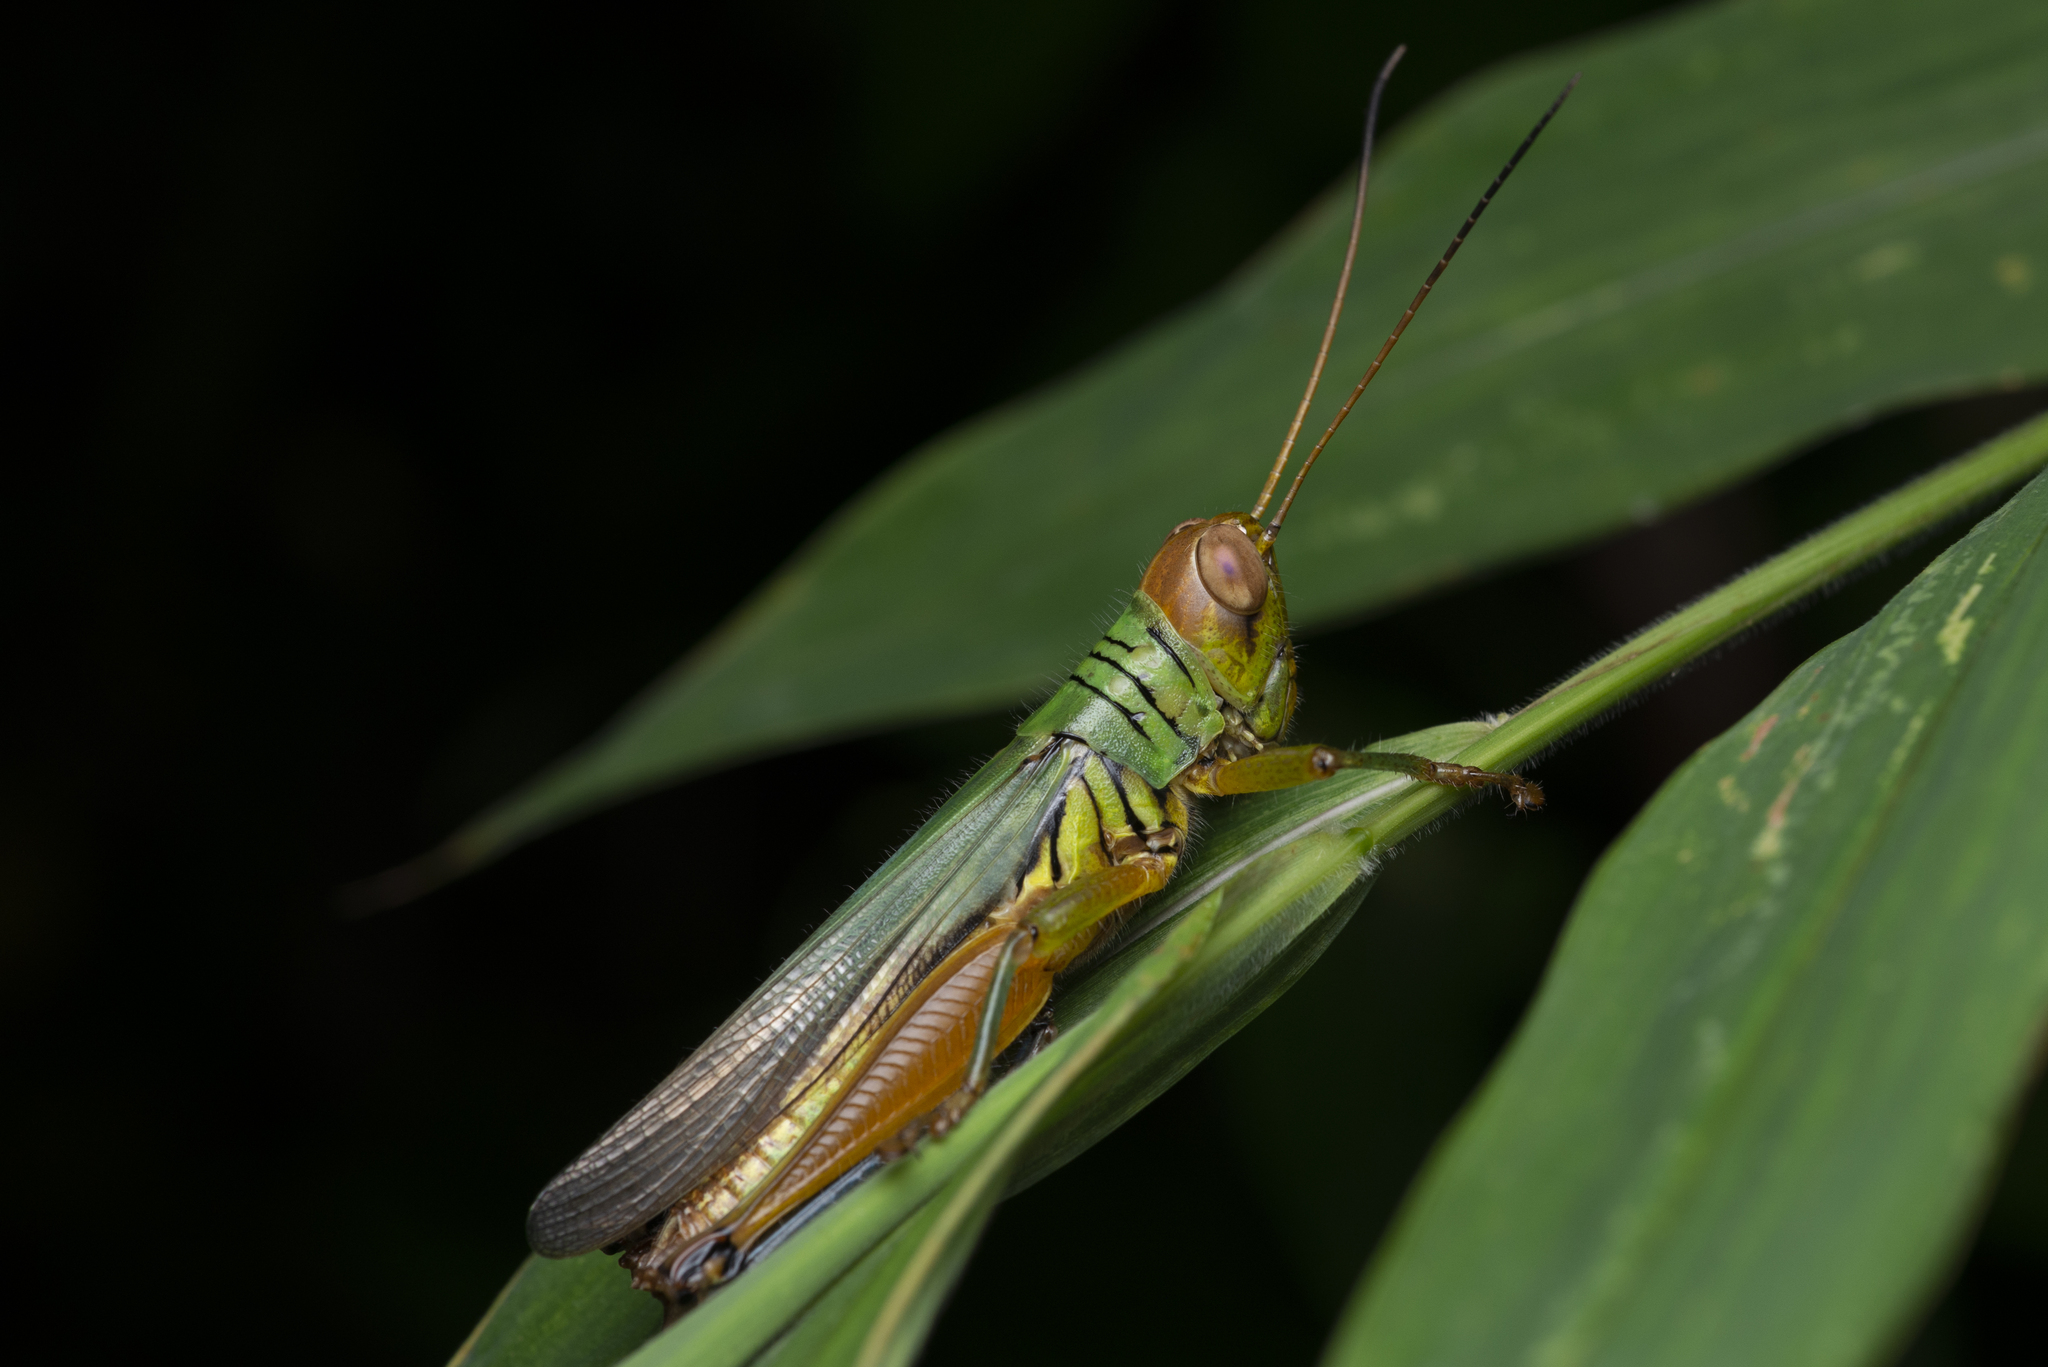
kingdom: Animalia
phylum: Arthropoda
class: Insecta
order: Orthoptera
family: Acrididae
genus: Hieroglyphus
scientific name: Hieroglyphus tonkinensis
